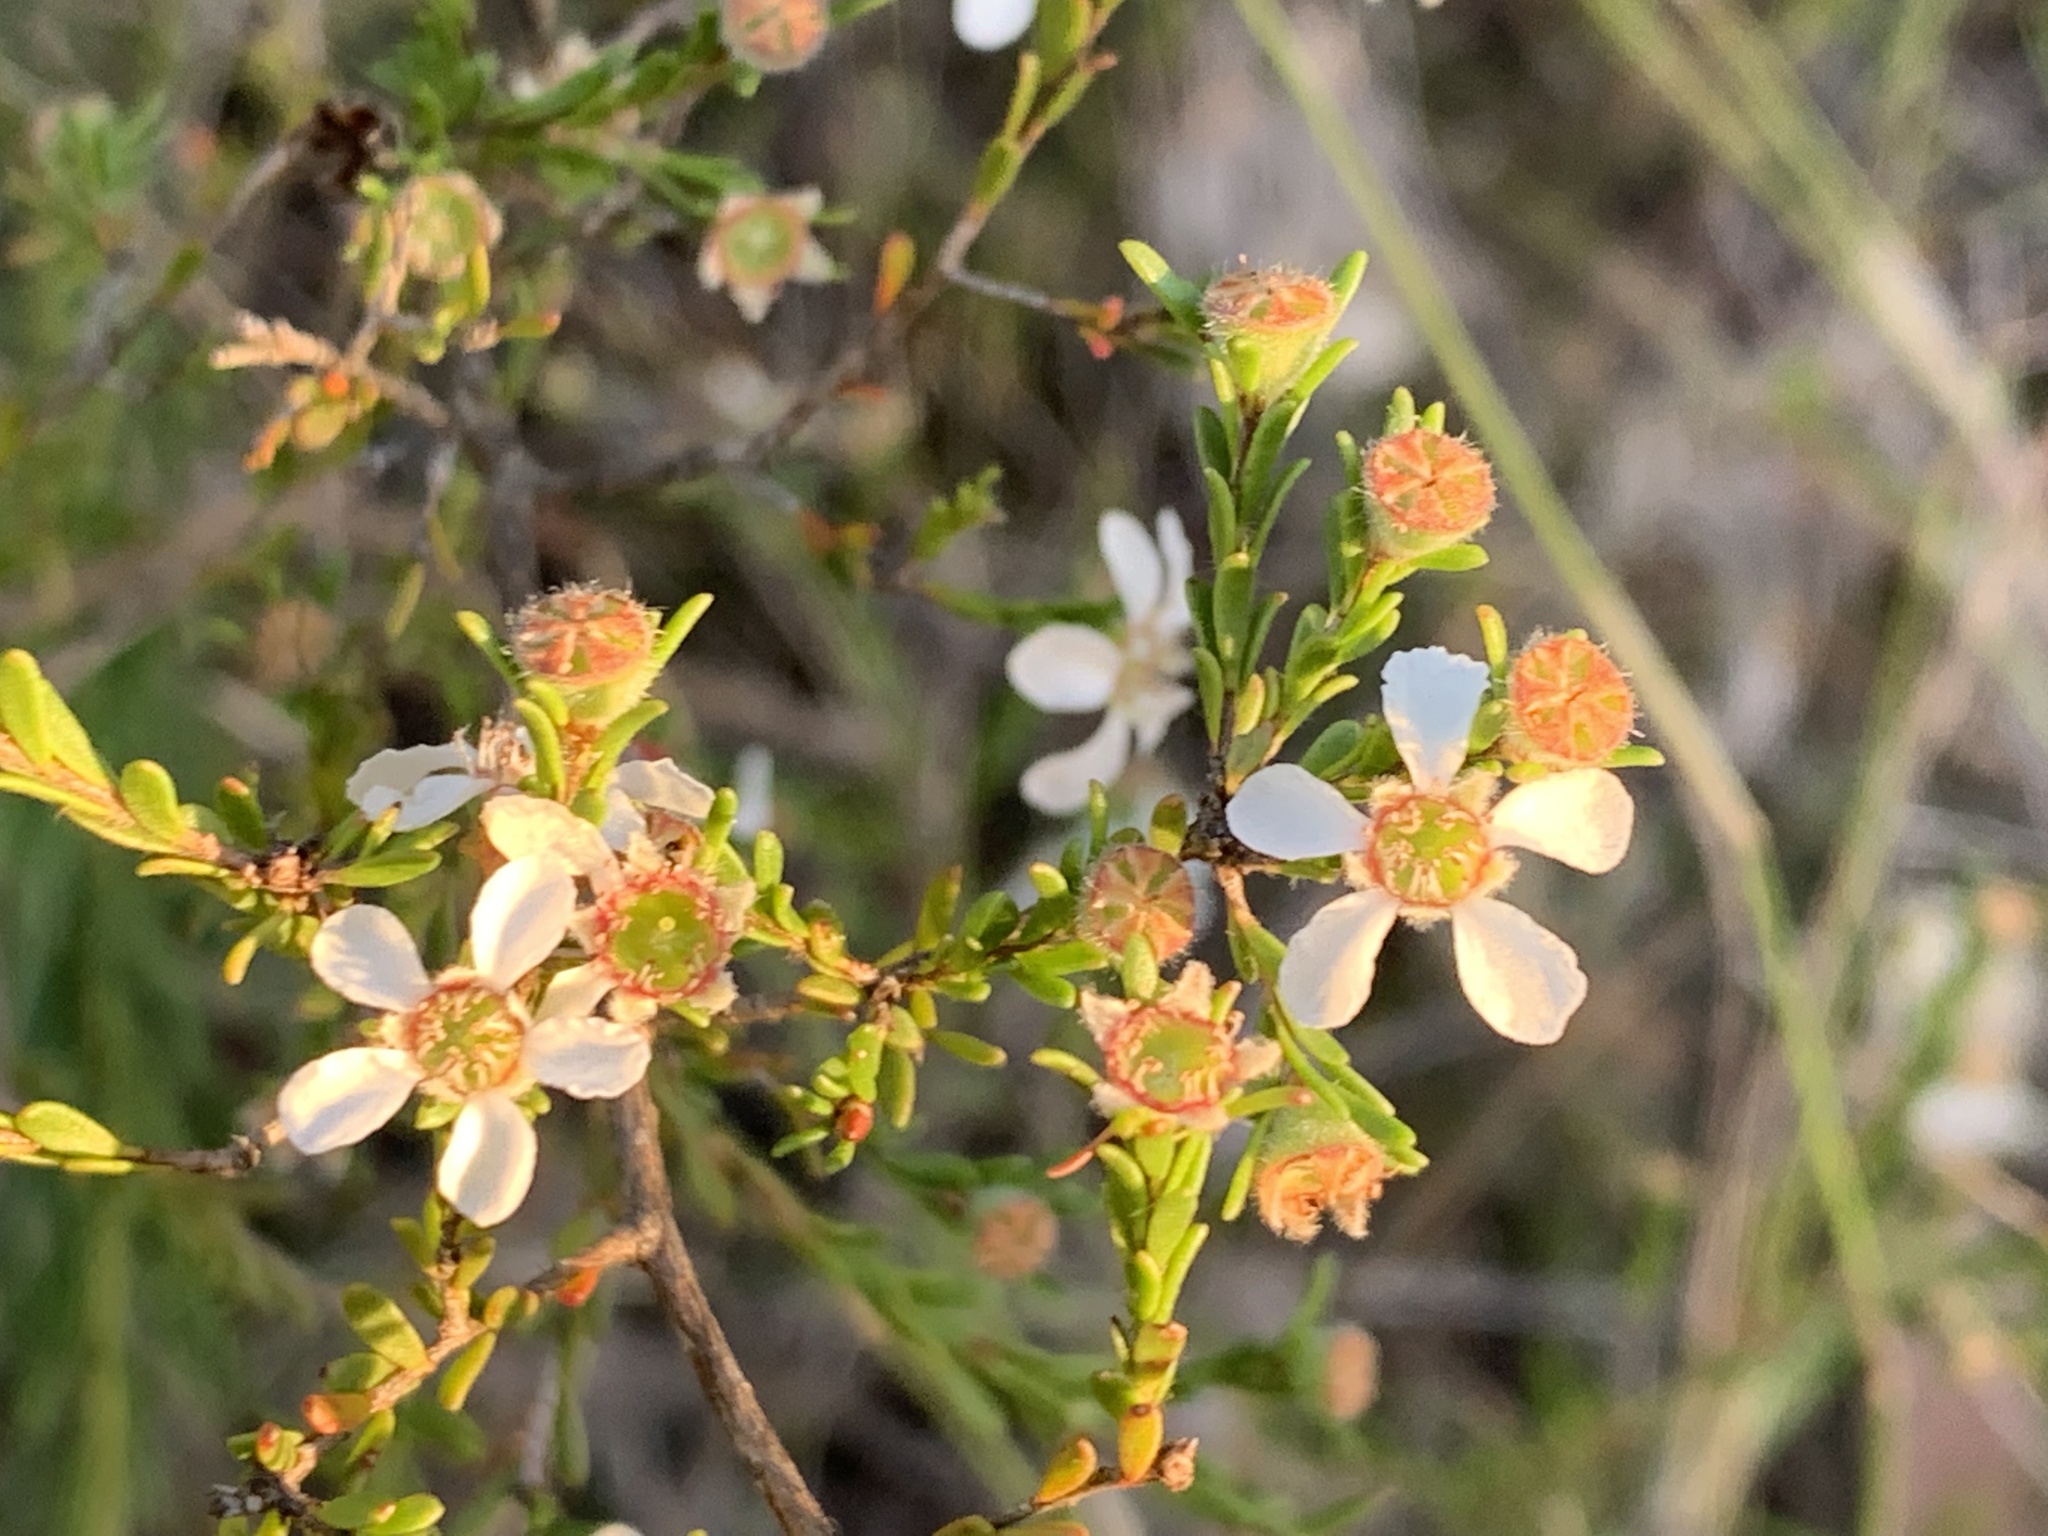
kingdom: Plantae
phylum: Tracheophyta
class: Magnoliopsida
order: Myrtales
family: Myrtaceae
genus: Leptospermum
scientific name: Leptospermum parvifolium
